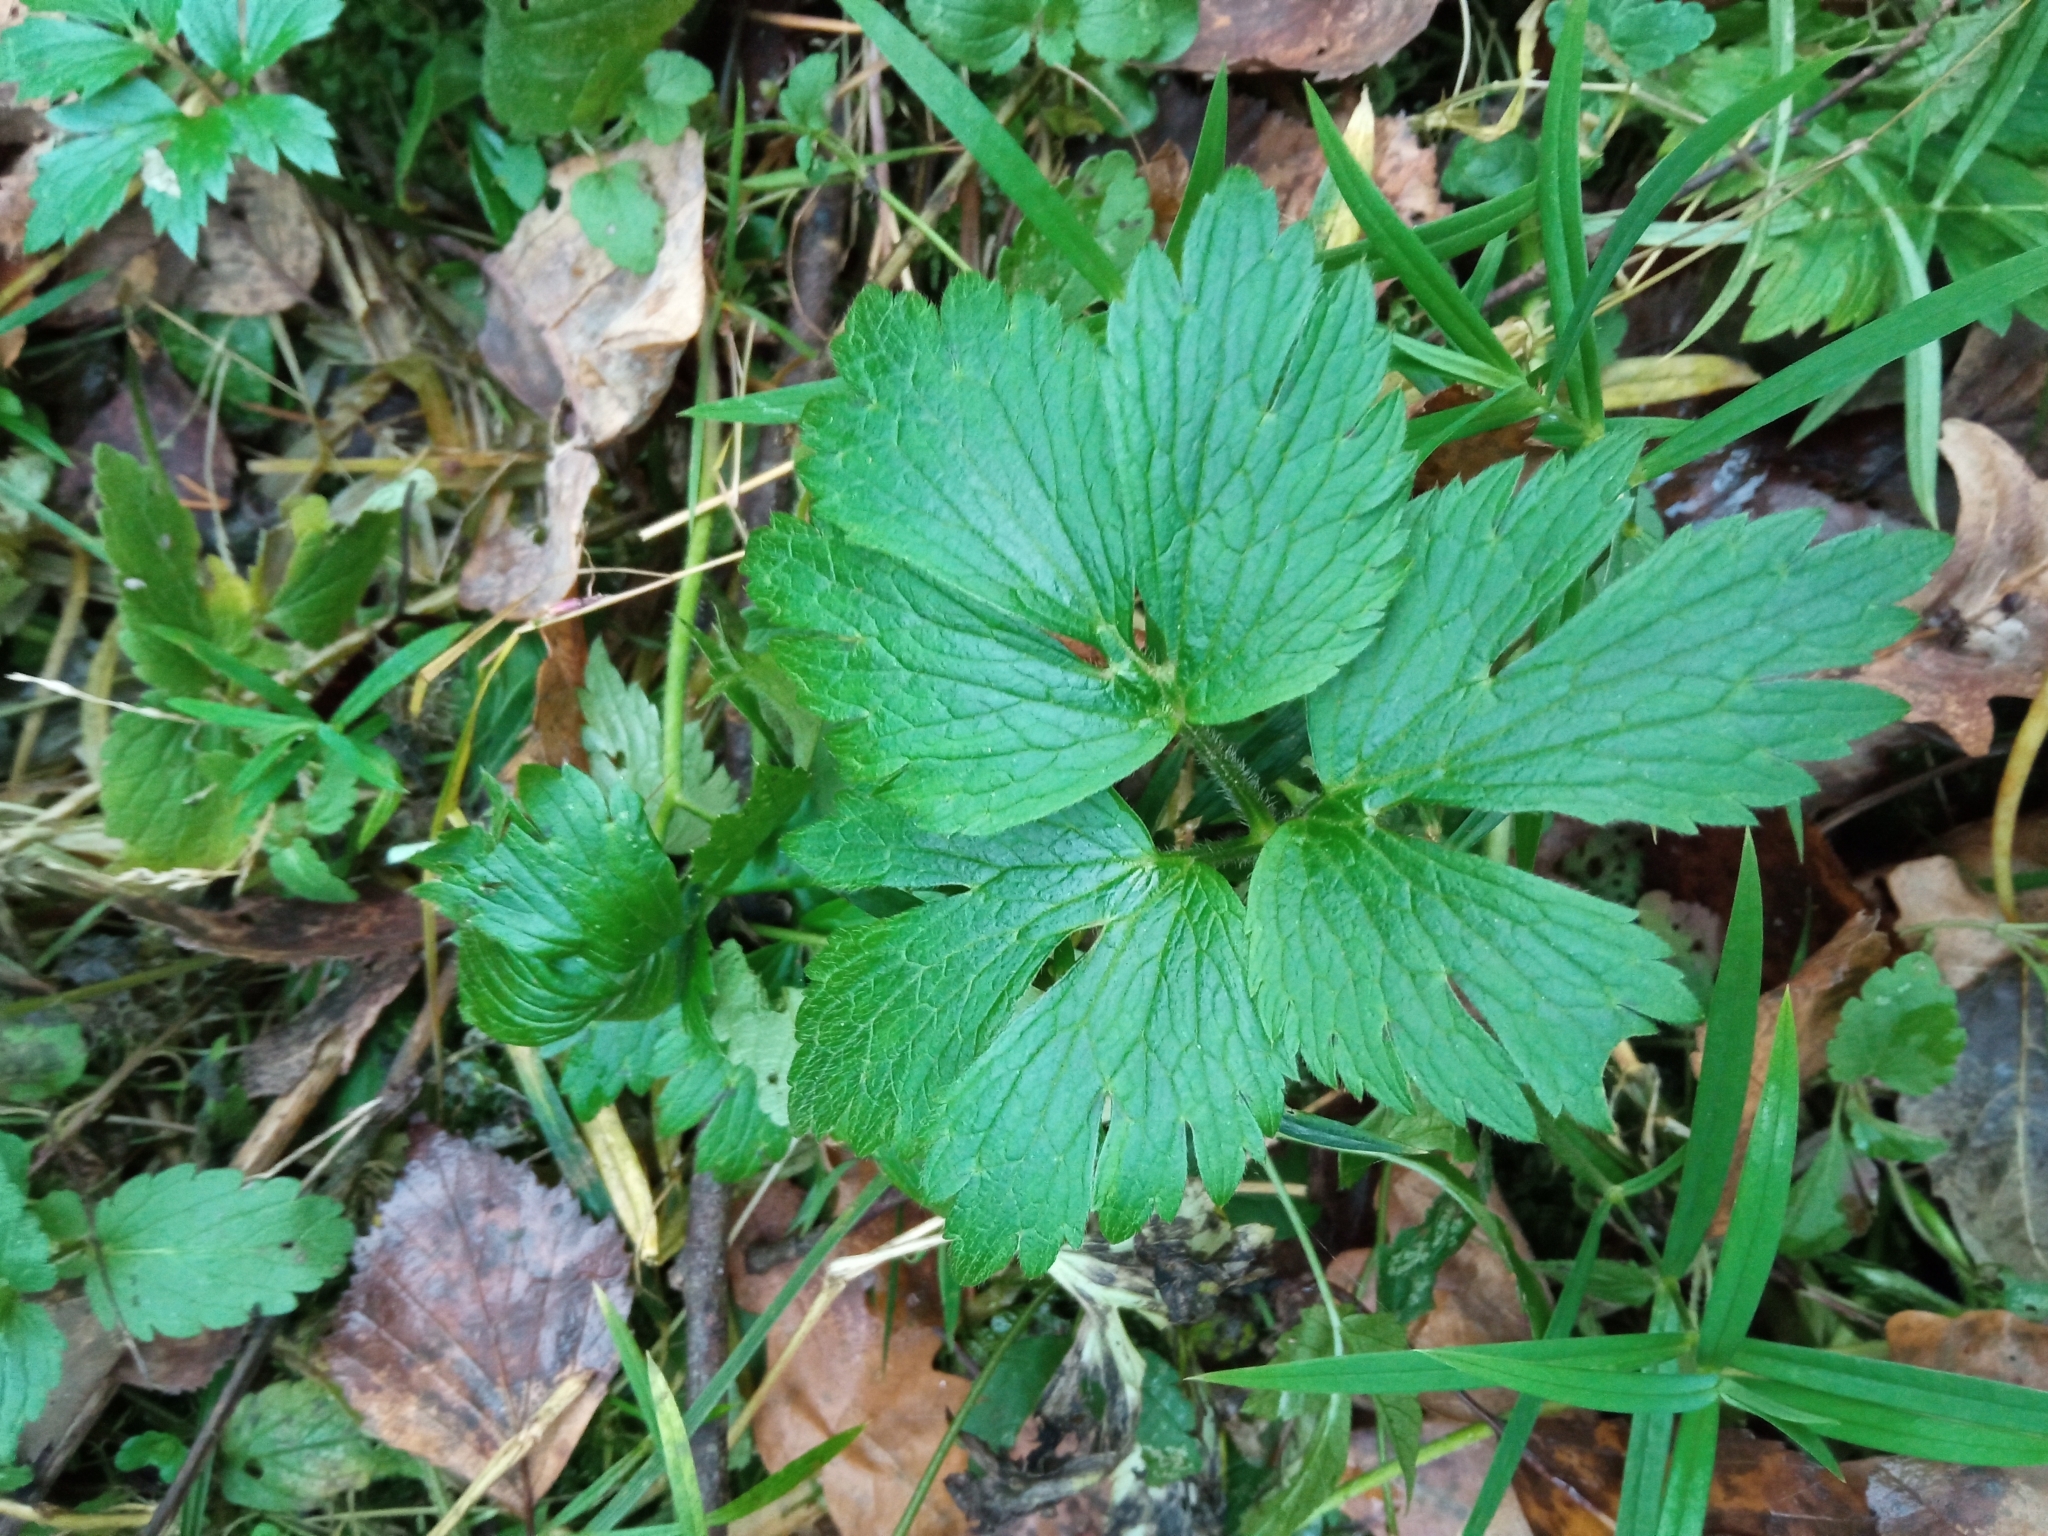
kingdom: Plantae
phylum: Tracheophyta
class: Magnoliopsida
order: Ranunculales
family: Ranunculaceae
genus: Ranunculus
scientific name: Ranunculus repens
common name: Creeping buttercup
